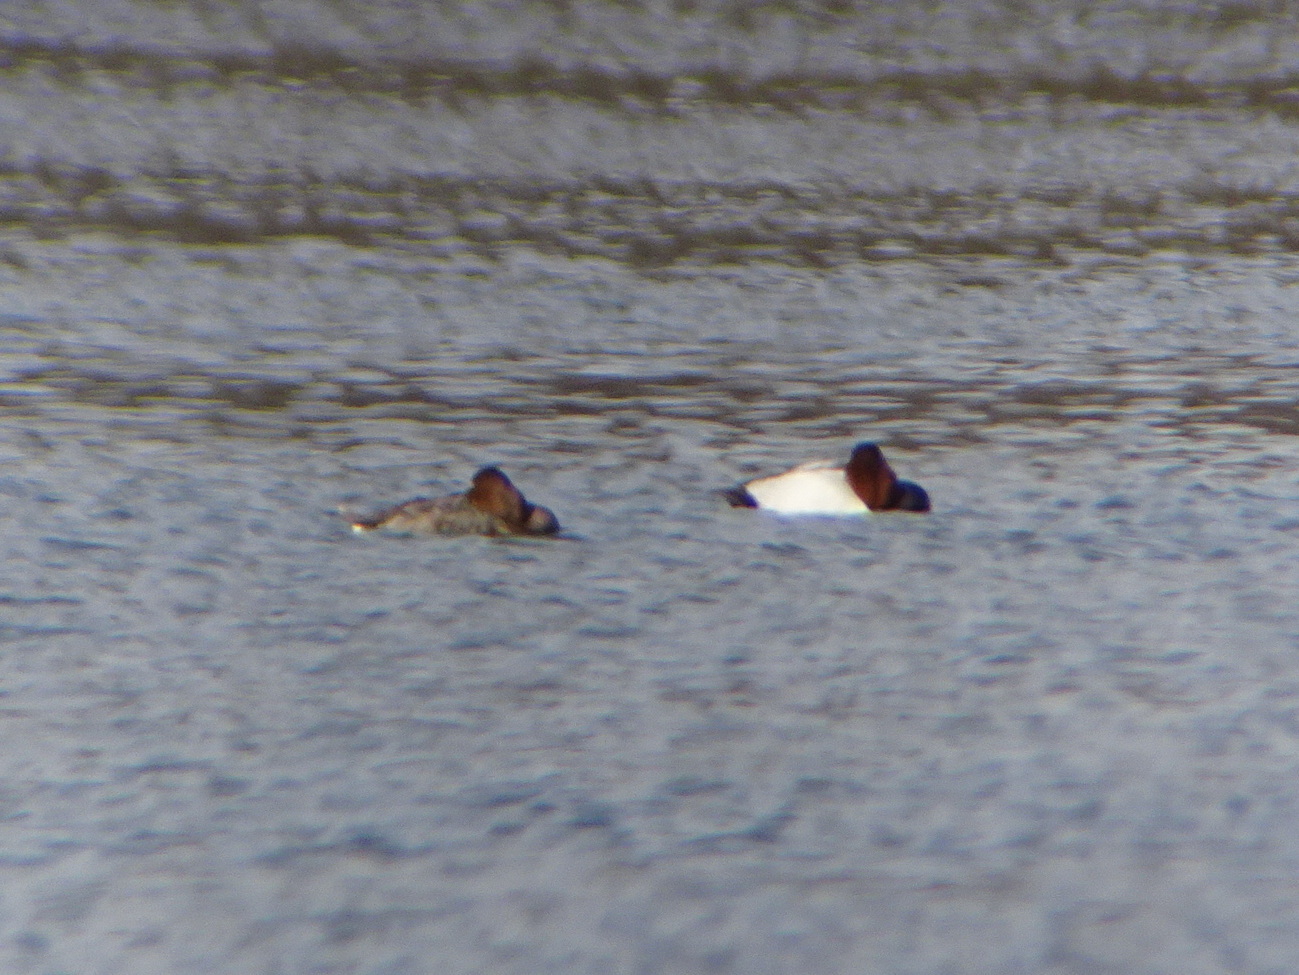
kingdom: Animalia
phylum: Chordata
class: Aves
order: Anseriformes
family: Anatidae
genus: Aythya
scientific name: Aythya valisineria
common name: Canvasback
